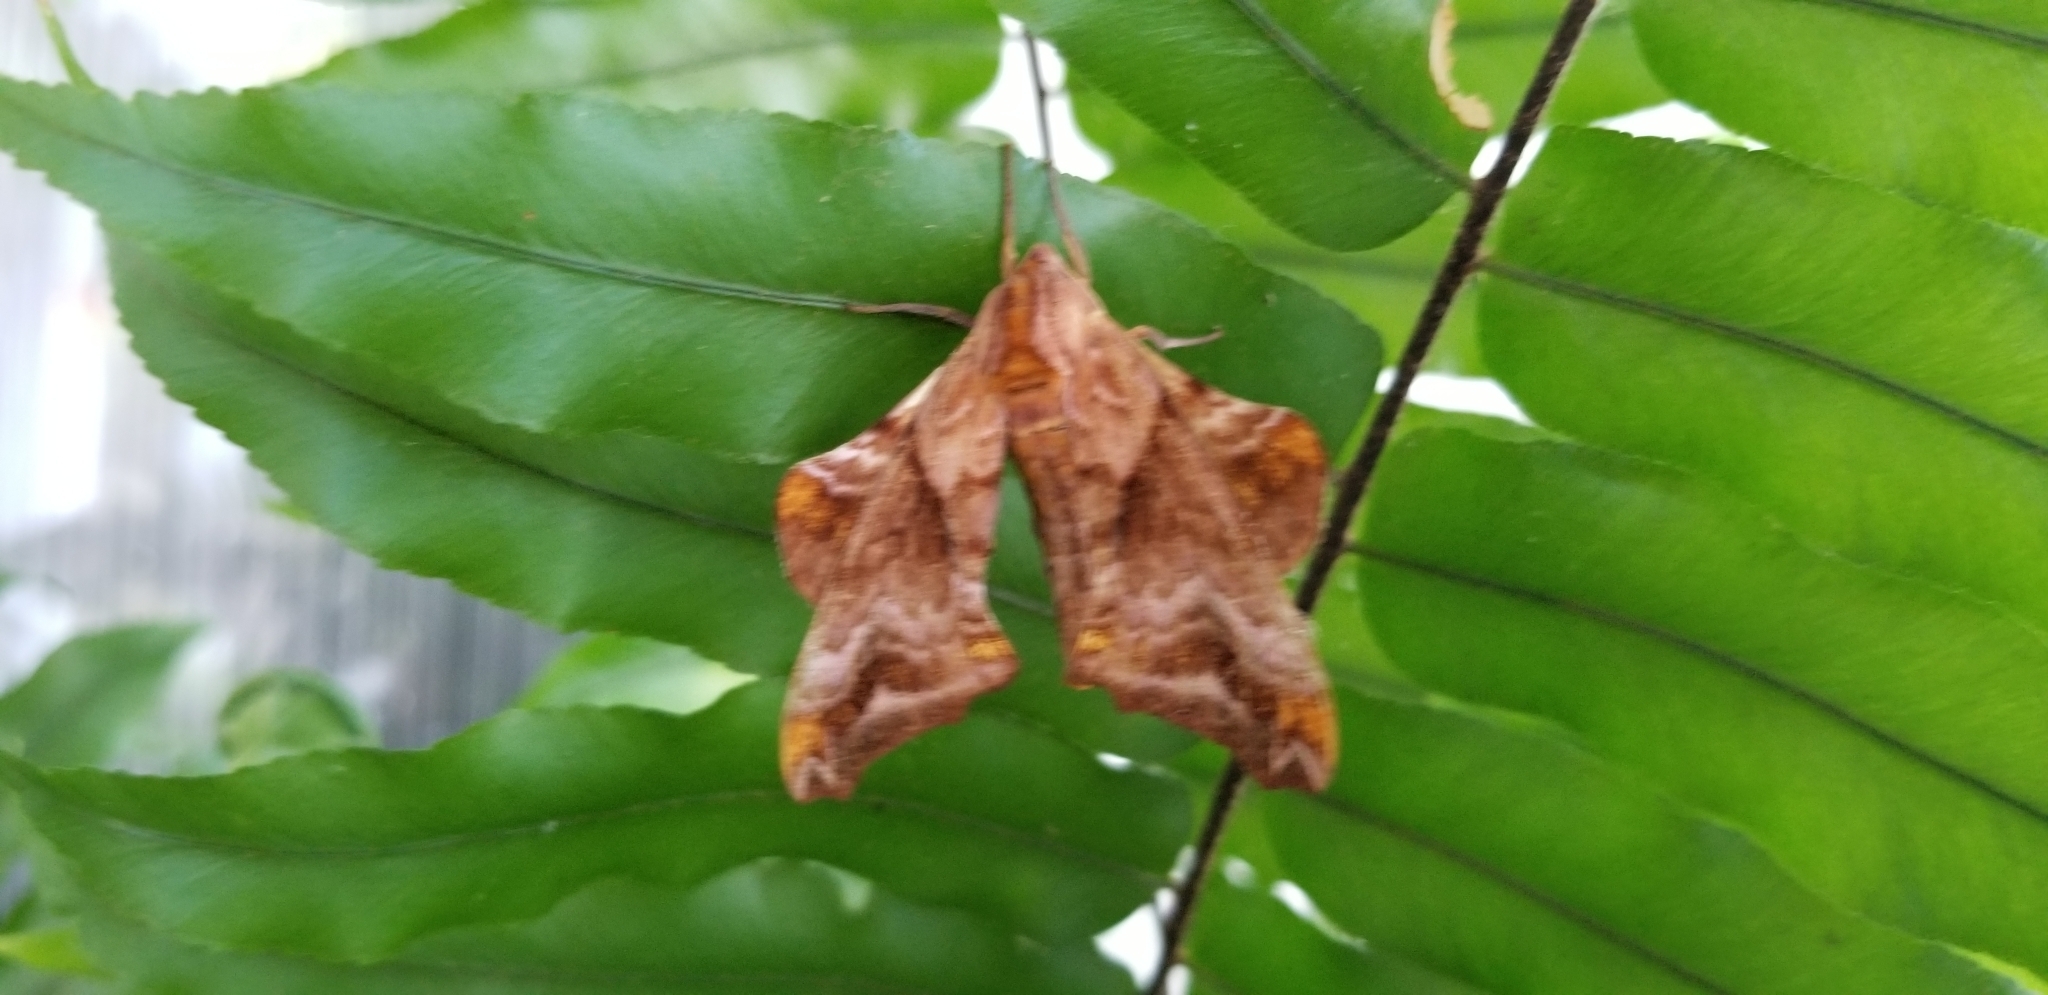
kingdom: Animalia
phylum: Arthropoda
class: Insecta
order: Lepidoptera
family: Sphingidae
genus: Paonias
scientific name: Paonias myops
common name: Small-eyed sphinx
